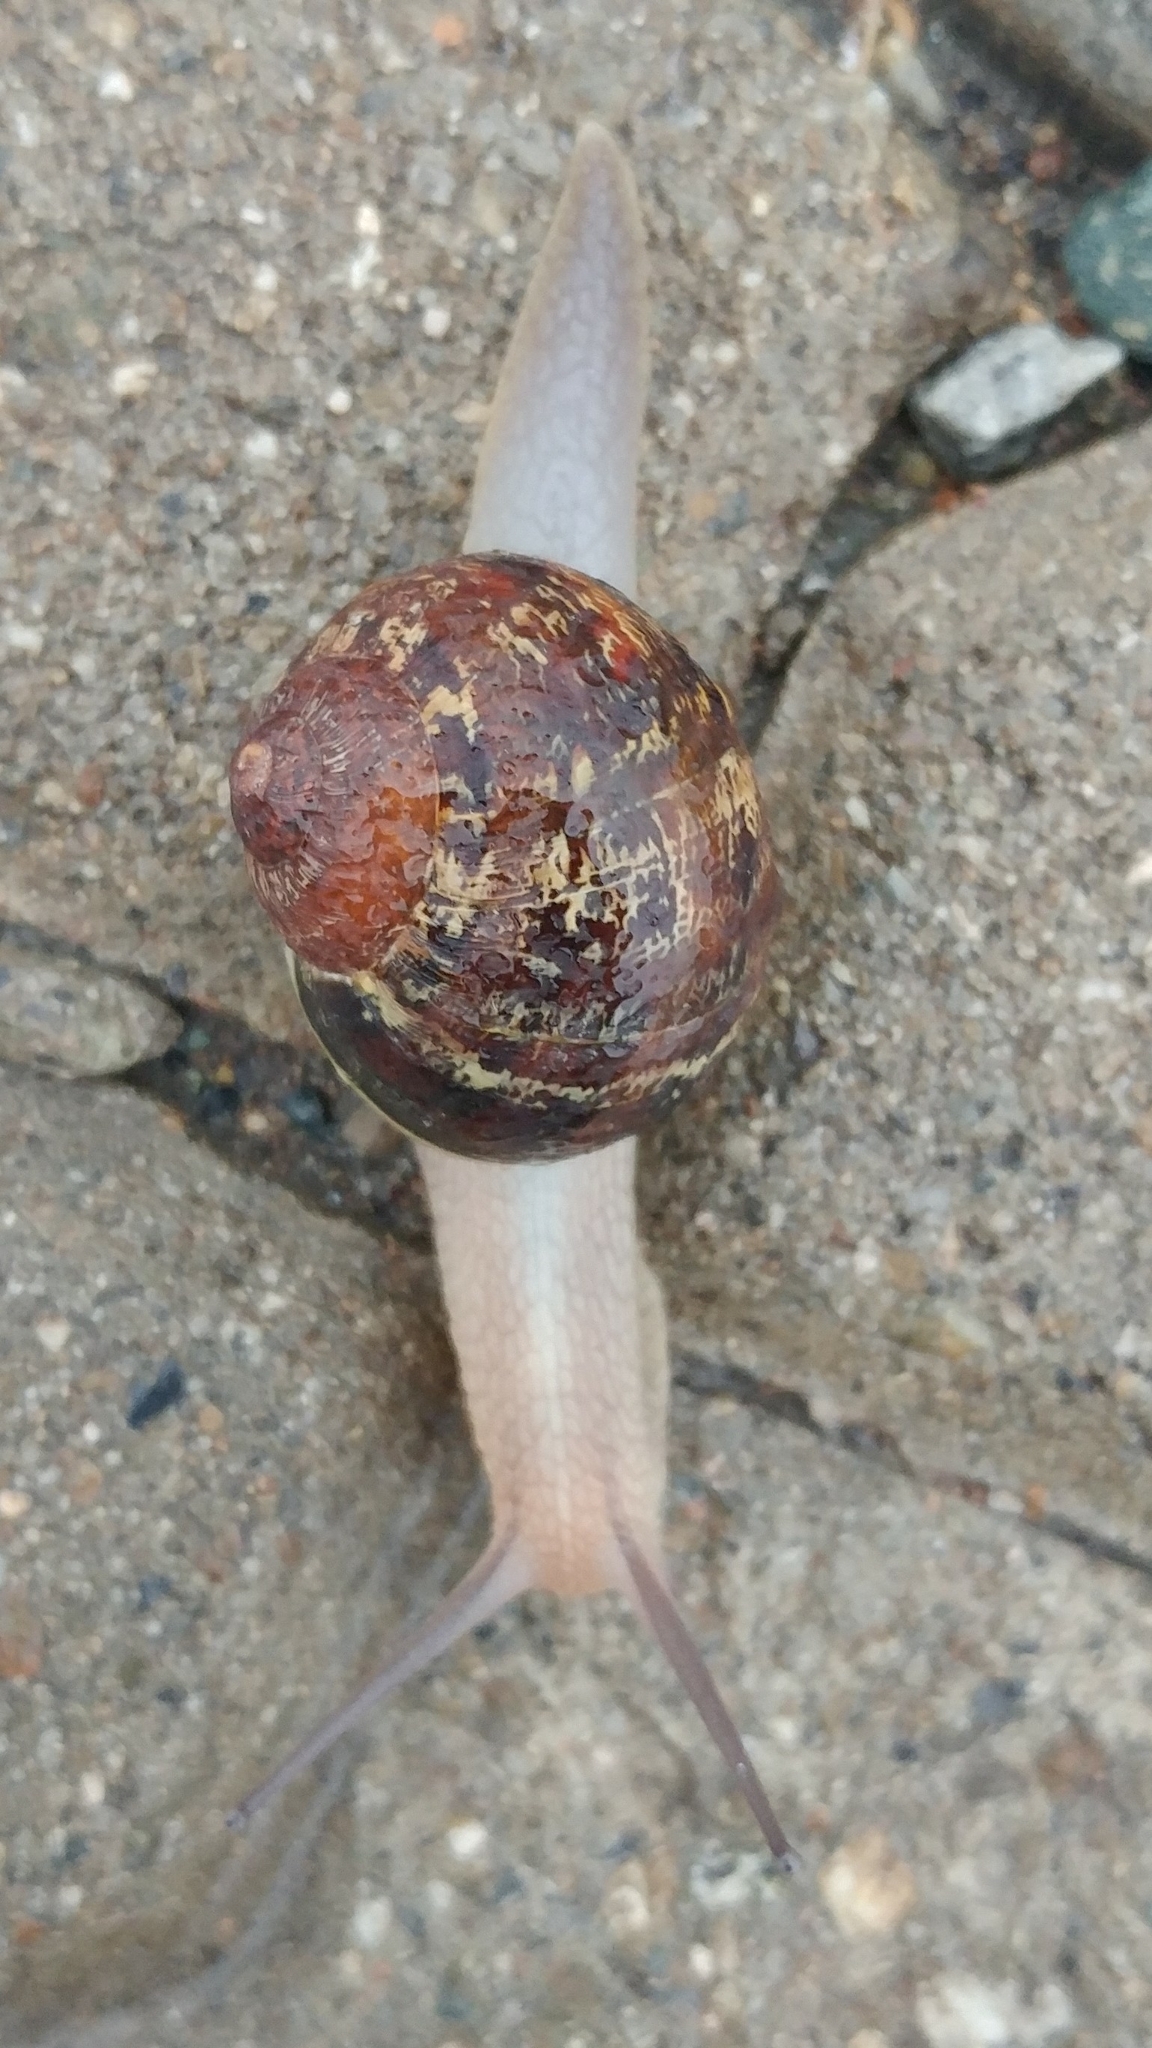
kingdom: Animalia
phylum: Mollusca
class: Gastropoda
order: Stylommatophora
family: Helicidae
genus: Cornu
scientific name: Cornu aspersum
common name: Brown garden snail
